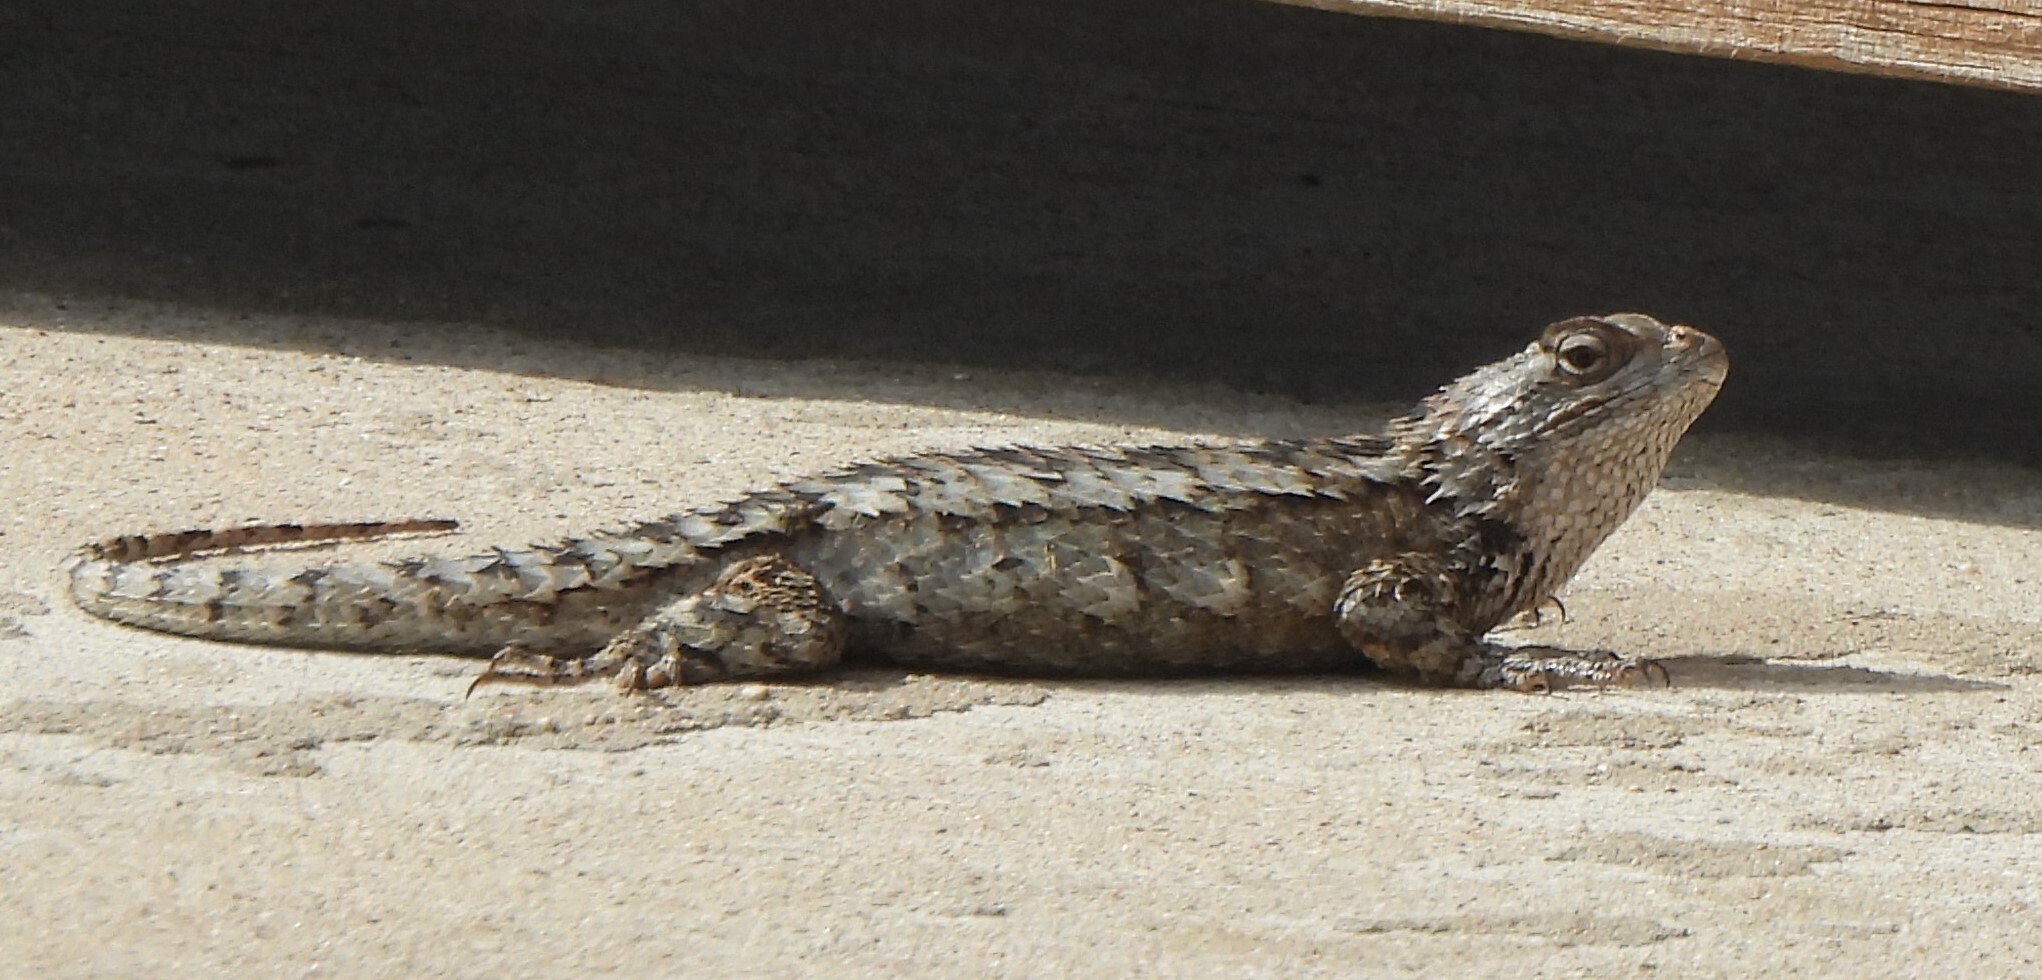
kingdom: Animalia
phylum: Chordata
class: Squamata
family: Phrynosomatidae
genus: Sceloporus
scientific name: Sceloporus olivaceus
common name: Texas spiny lizard
